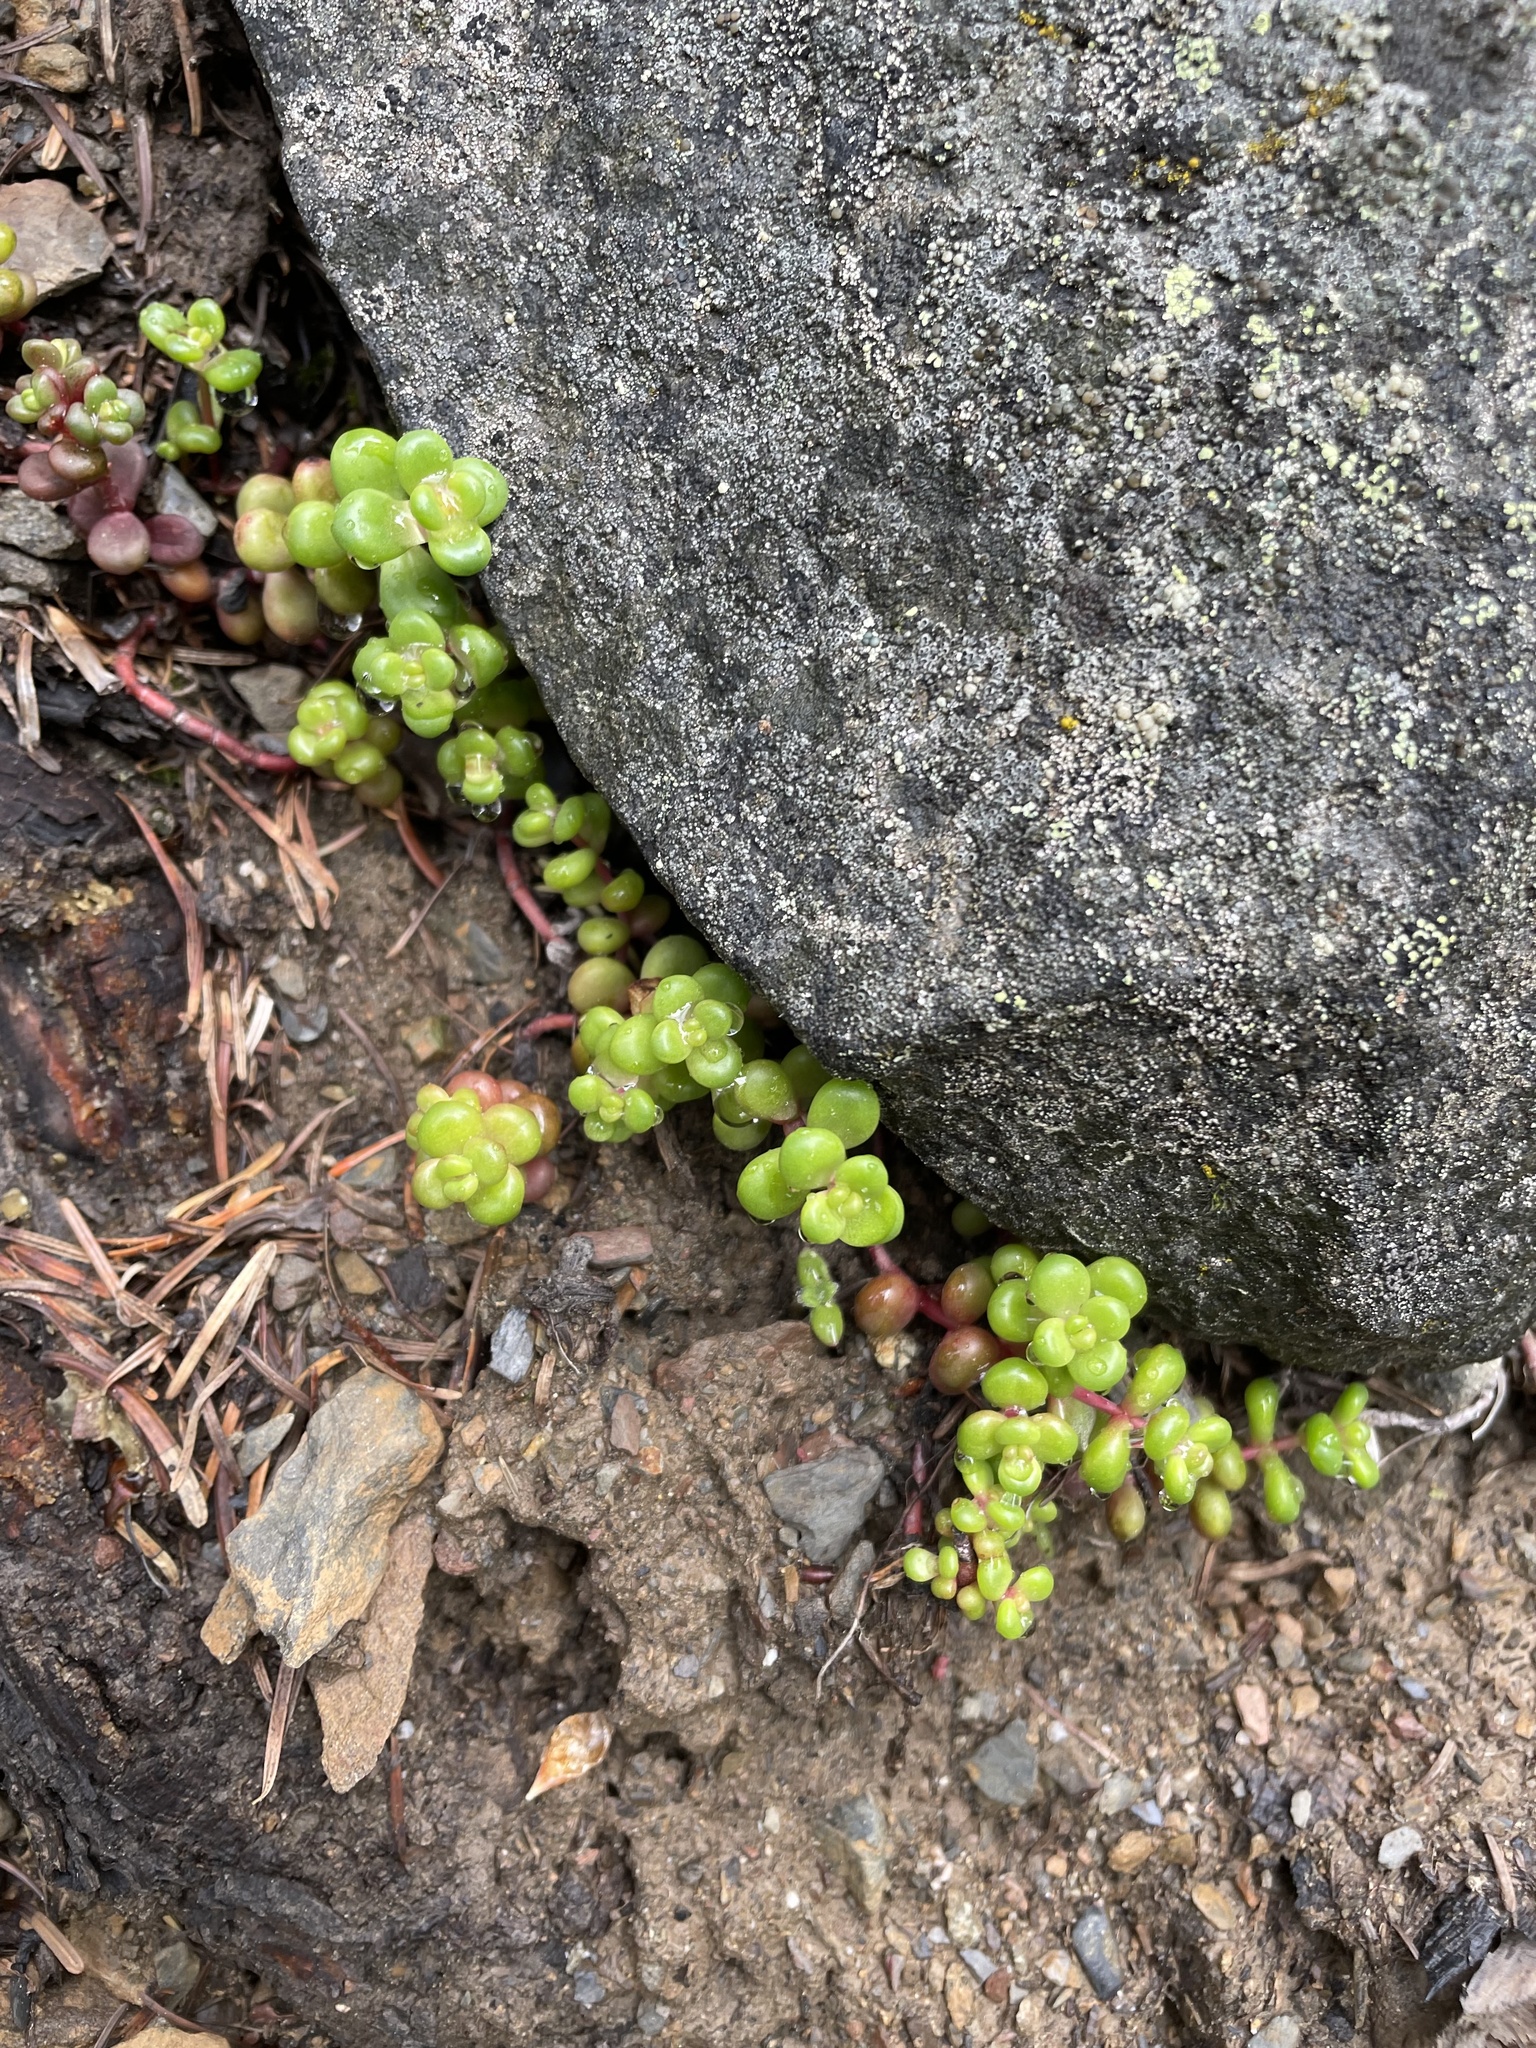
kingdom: Plantae
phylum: Tracheophyta
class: Magnoliopsida
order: Saxifragales
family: Crassulaceae
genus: Sedum
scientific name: Sedum divergens
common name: Cascade stonecrop
